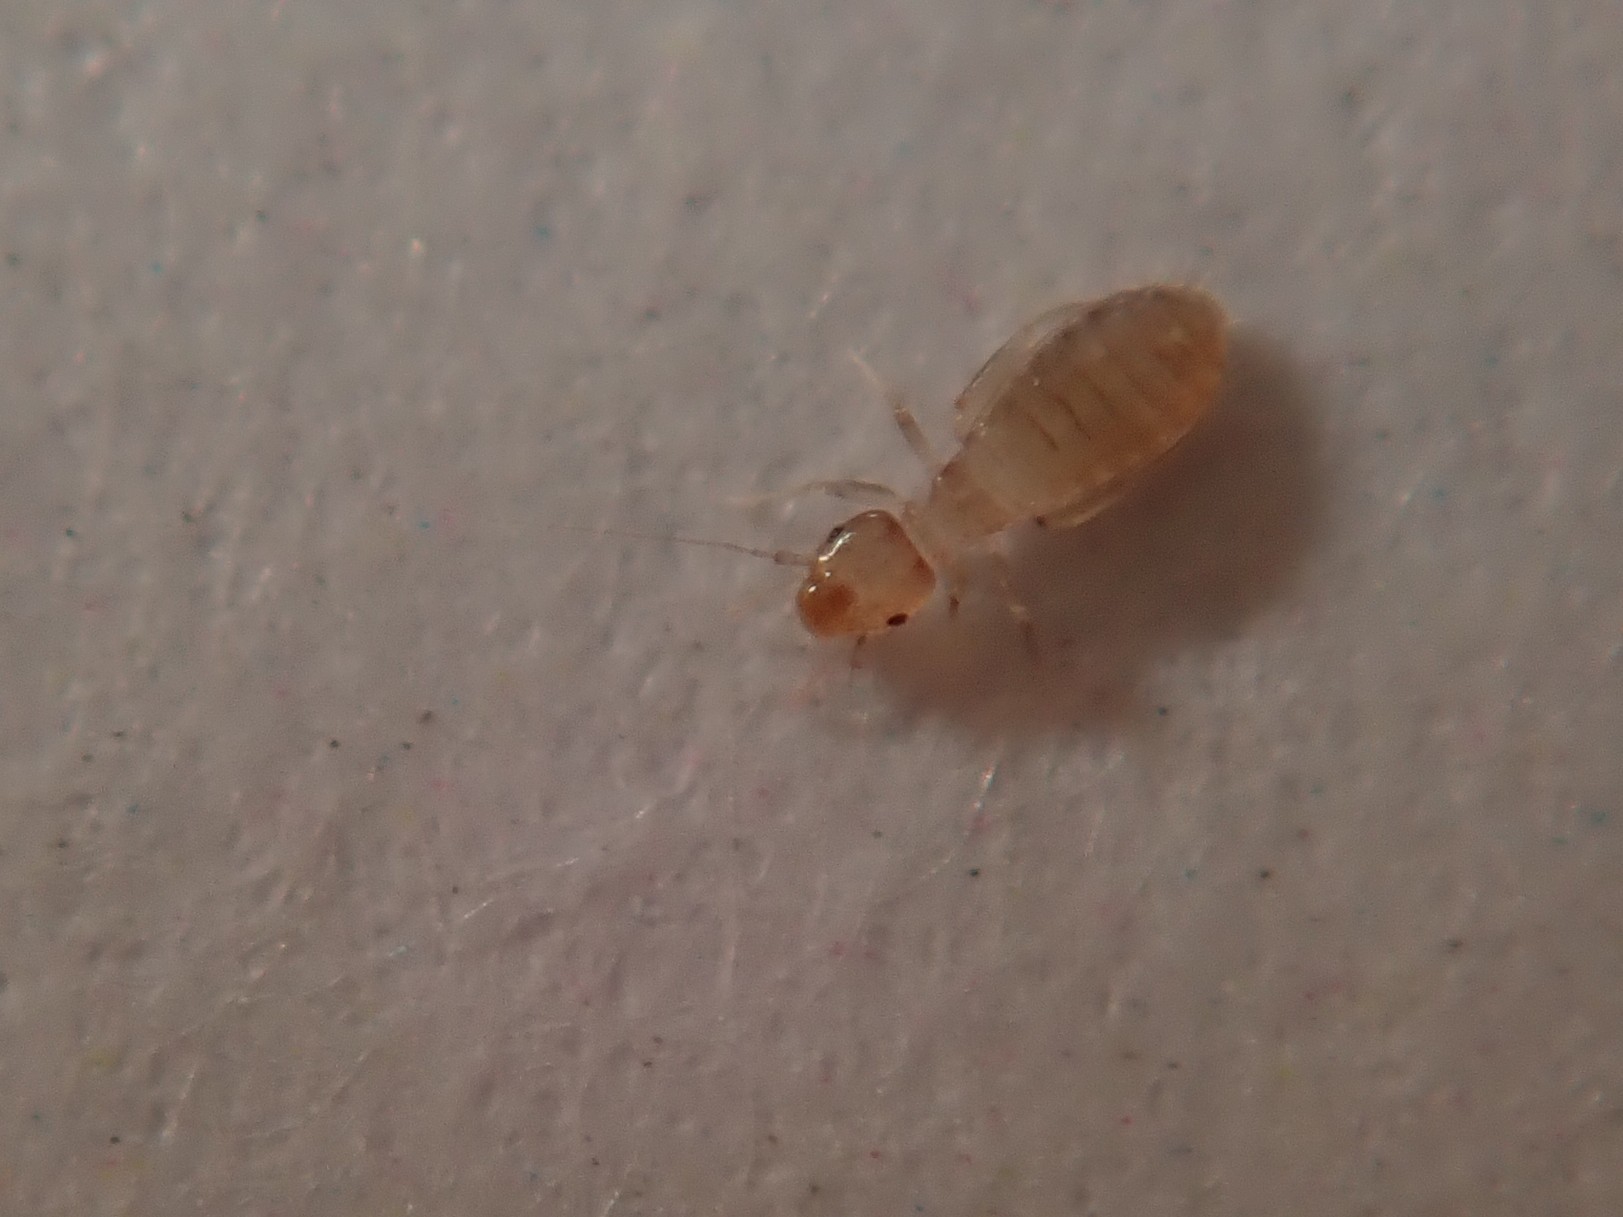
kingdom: Animalia
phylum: Arthropoda
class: Insecta
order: Psocodea
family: Liposcelididae
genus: Liposcelis
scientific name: Liposcelis bostrychophila
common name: Bark lice
